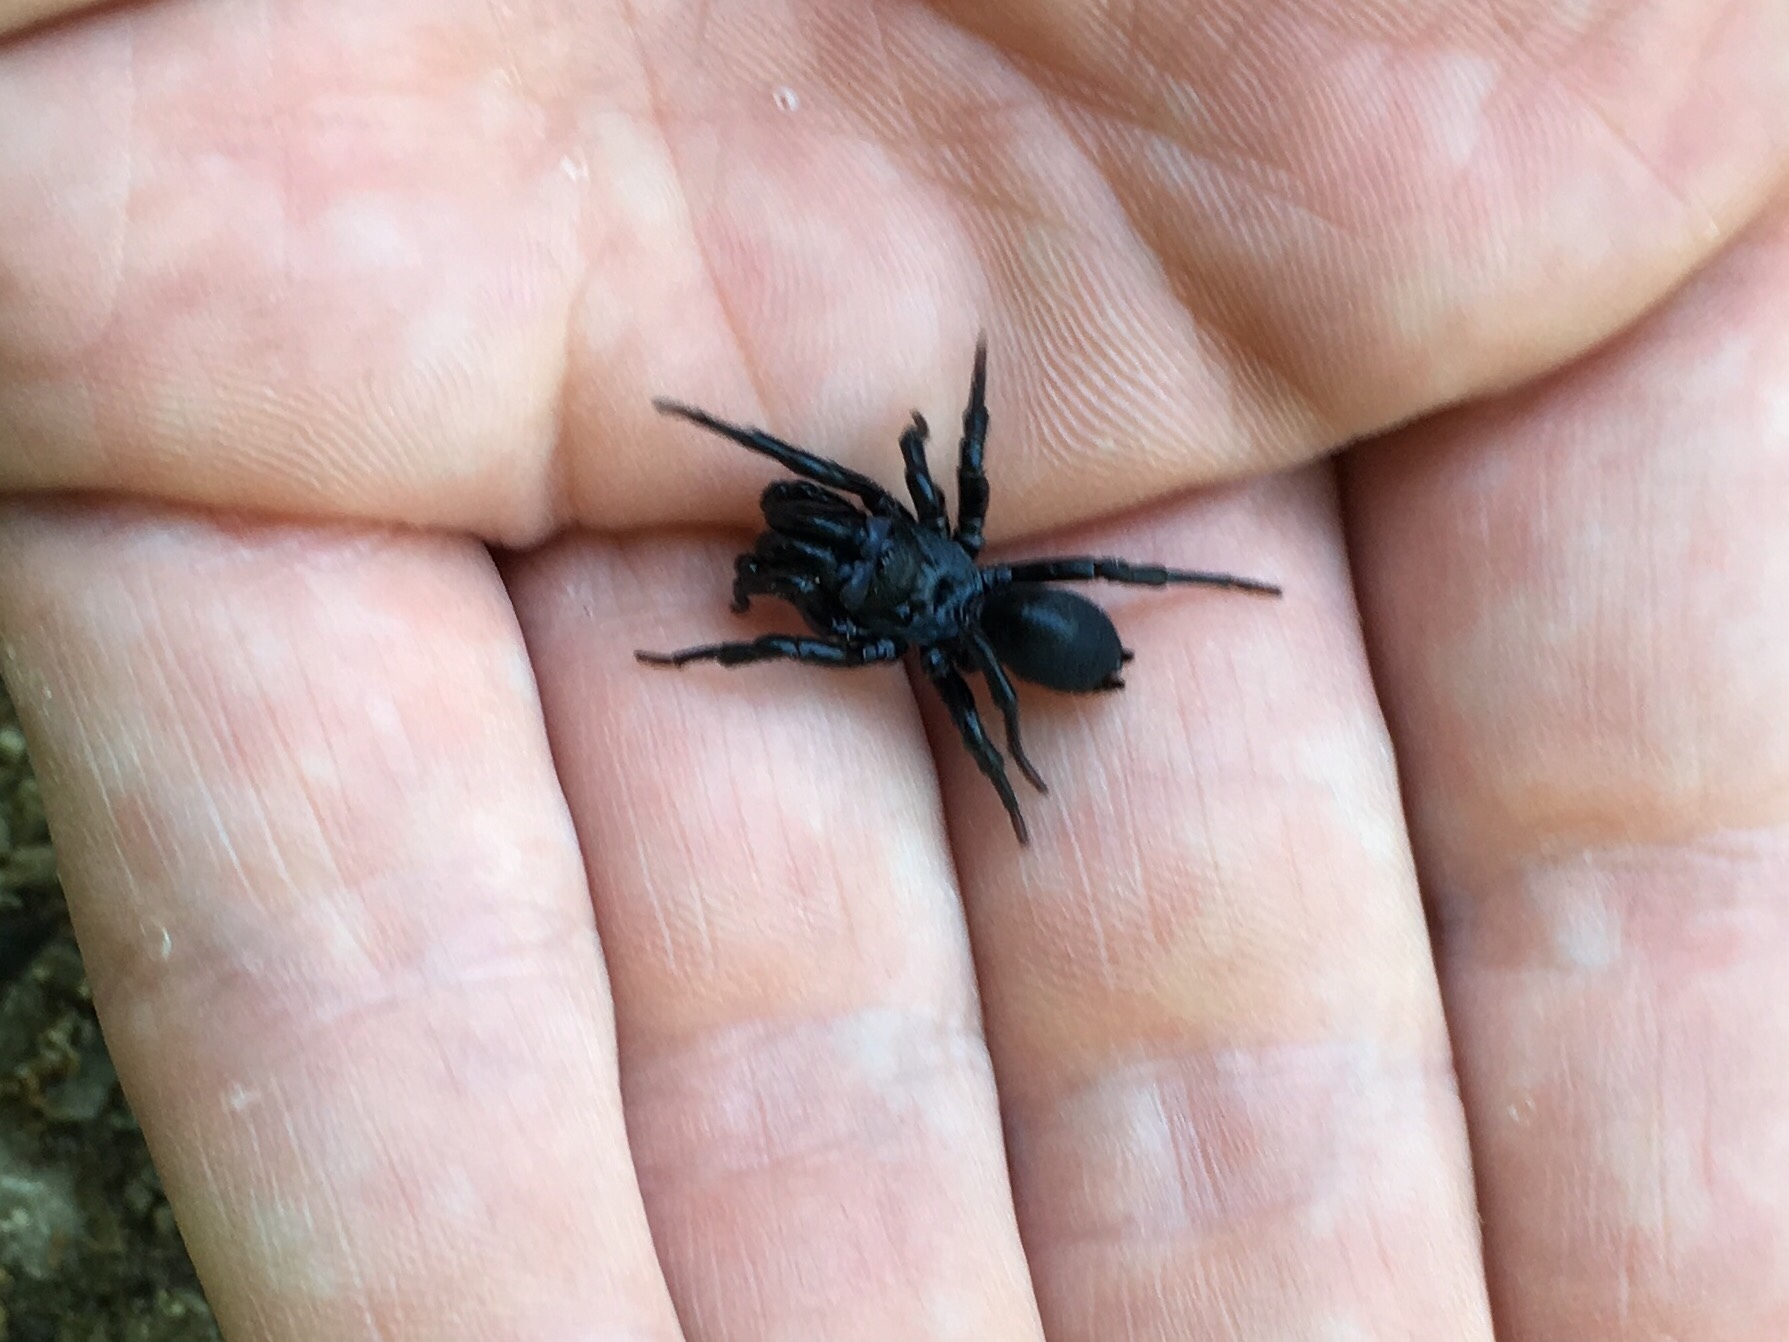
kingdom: Animalia
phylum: Arthropoda
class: Arachnida
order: Araneae
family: Atypidae
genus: Sphodros
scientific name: Sphodros niger
